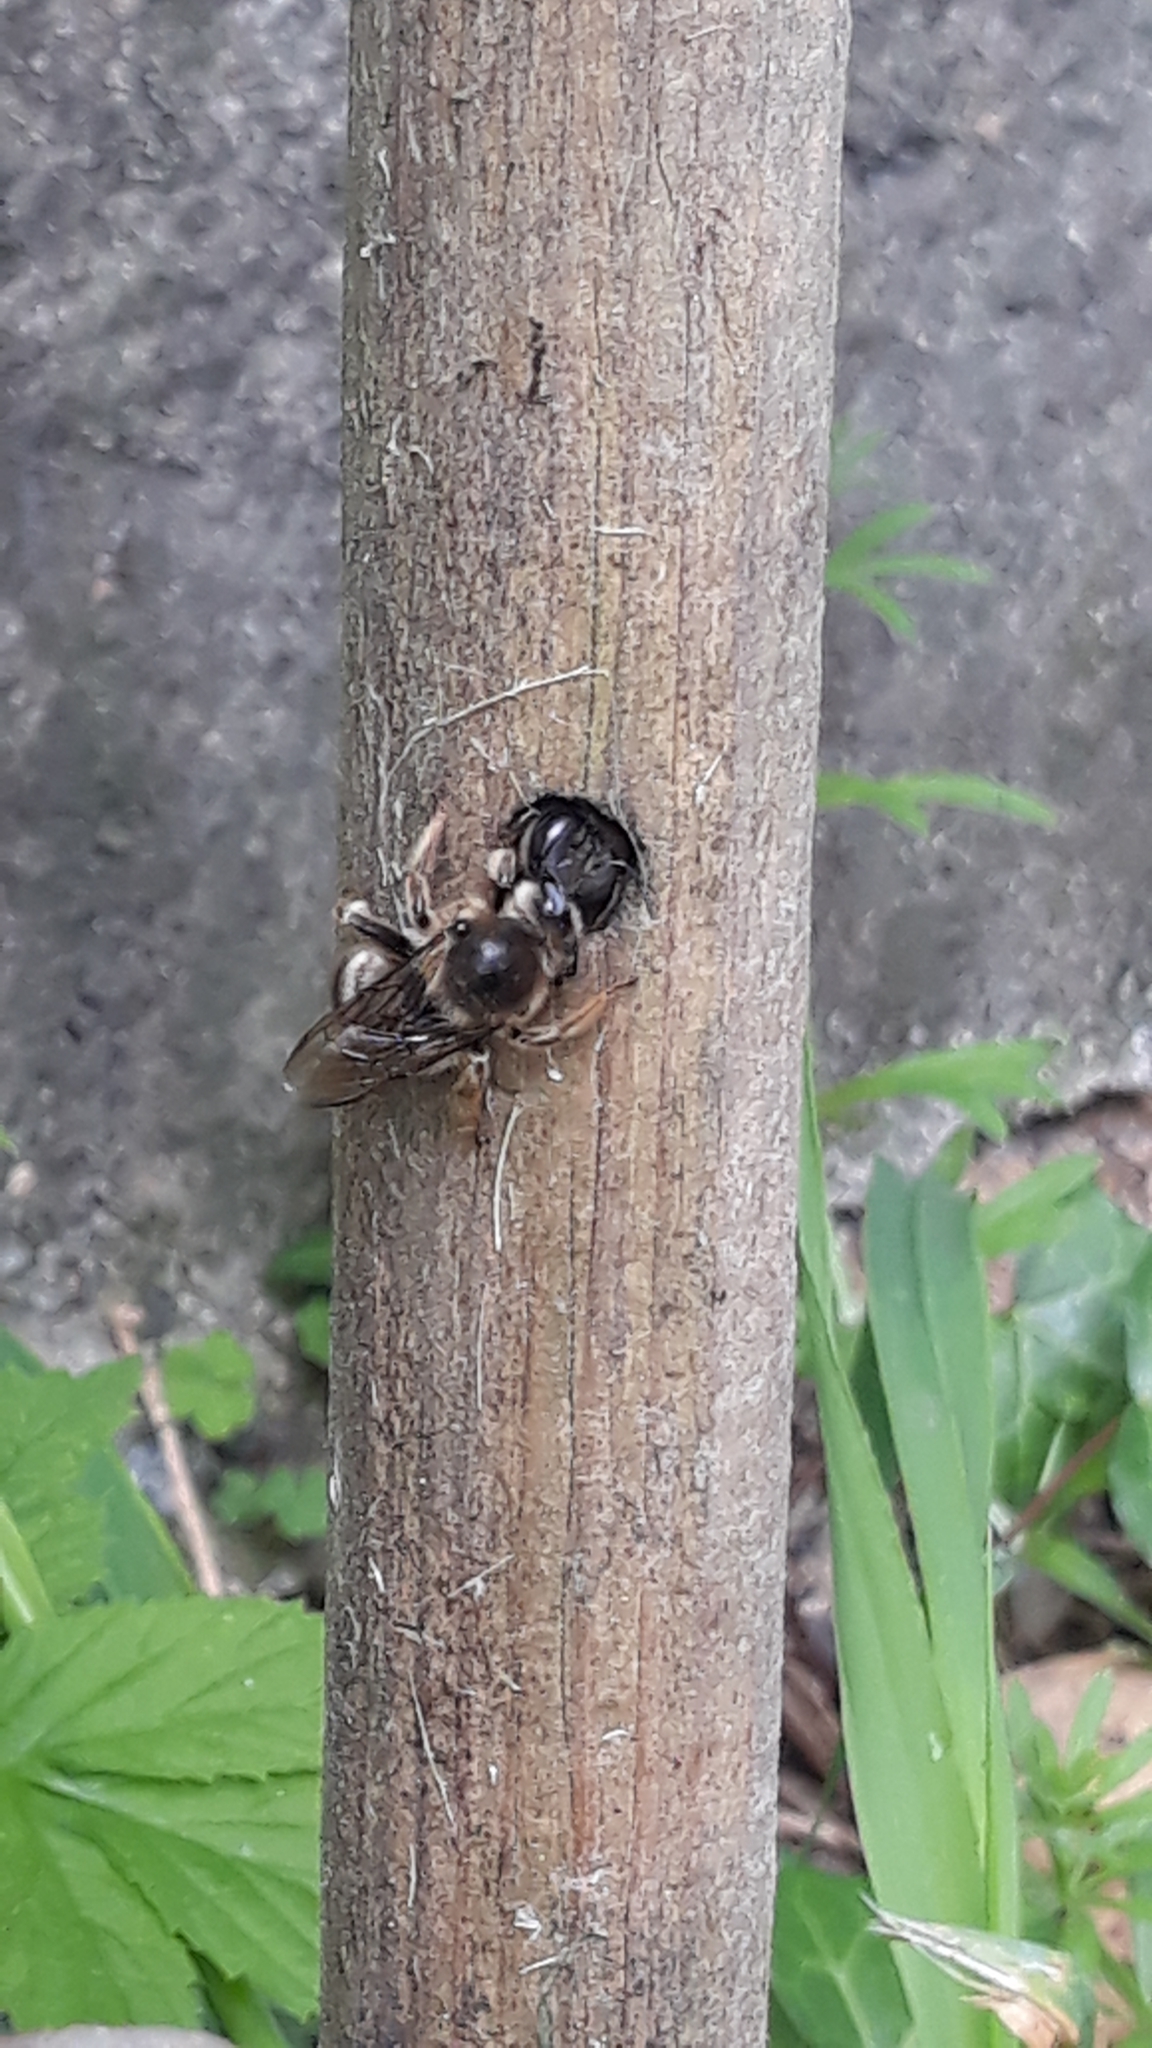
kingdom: Animalia
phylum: Arthropoda
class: Insecta
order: Hymenoptera
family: Apidae
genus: Xylocopa
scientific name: Xylocopa cantabrita
